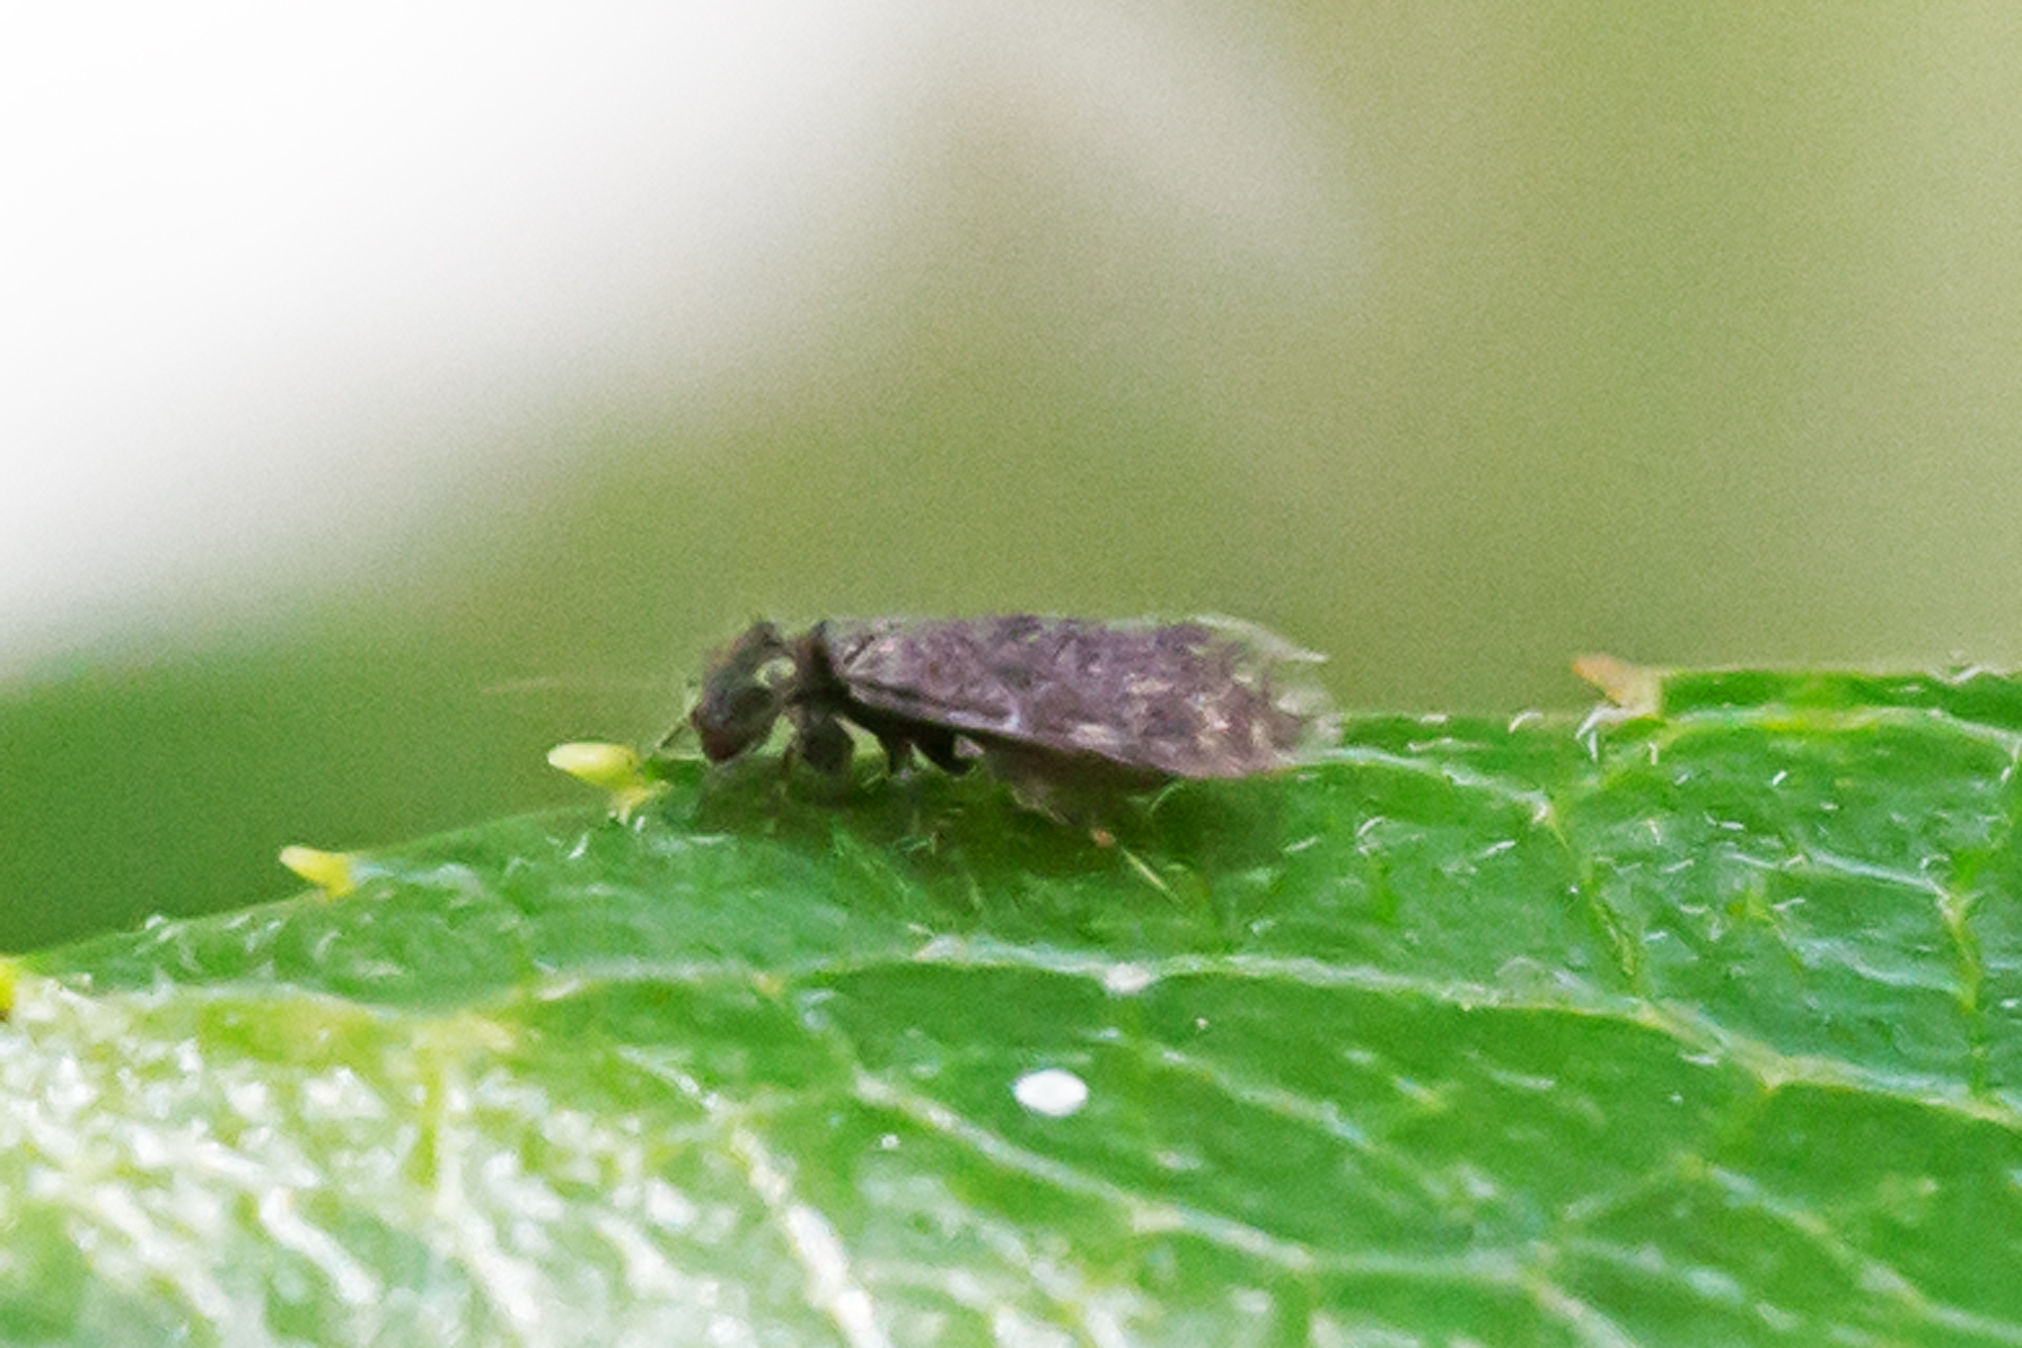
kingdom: Animalia
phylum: Arthropoda
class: Insecta
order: Psocodea
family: Lepidopsocidae
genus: Echmepteryx
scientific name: Echmepteryx hageni
